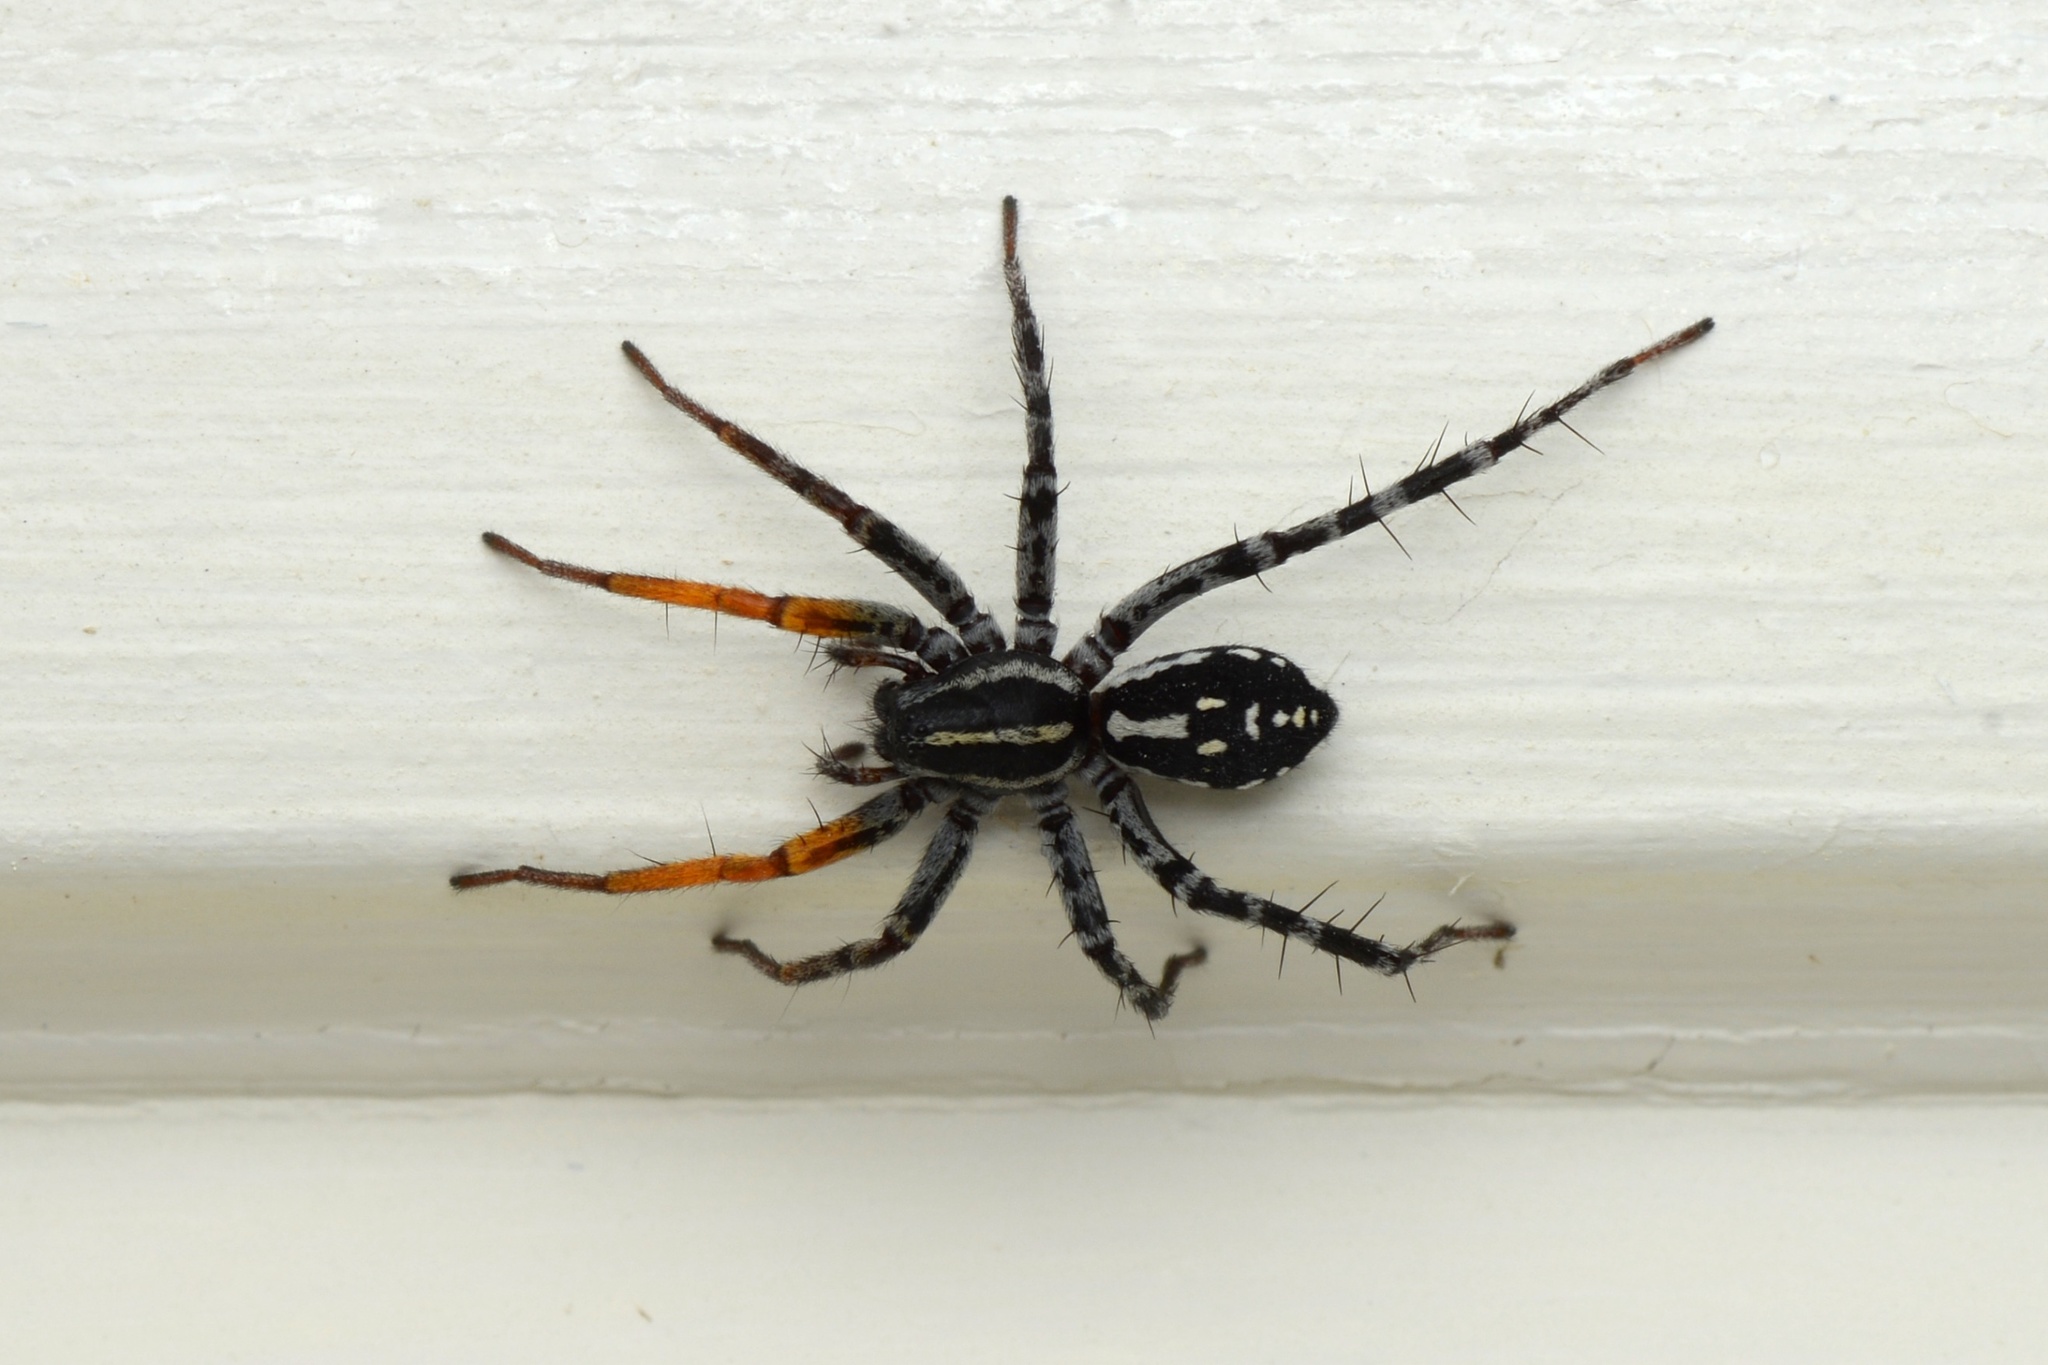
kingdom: Animalia
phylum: Arthropoda
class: Arachnida
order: Araneae
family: Corinnidae
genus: Nyssus
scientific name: Nyssus coloripes
